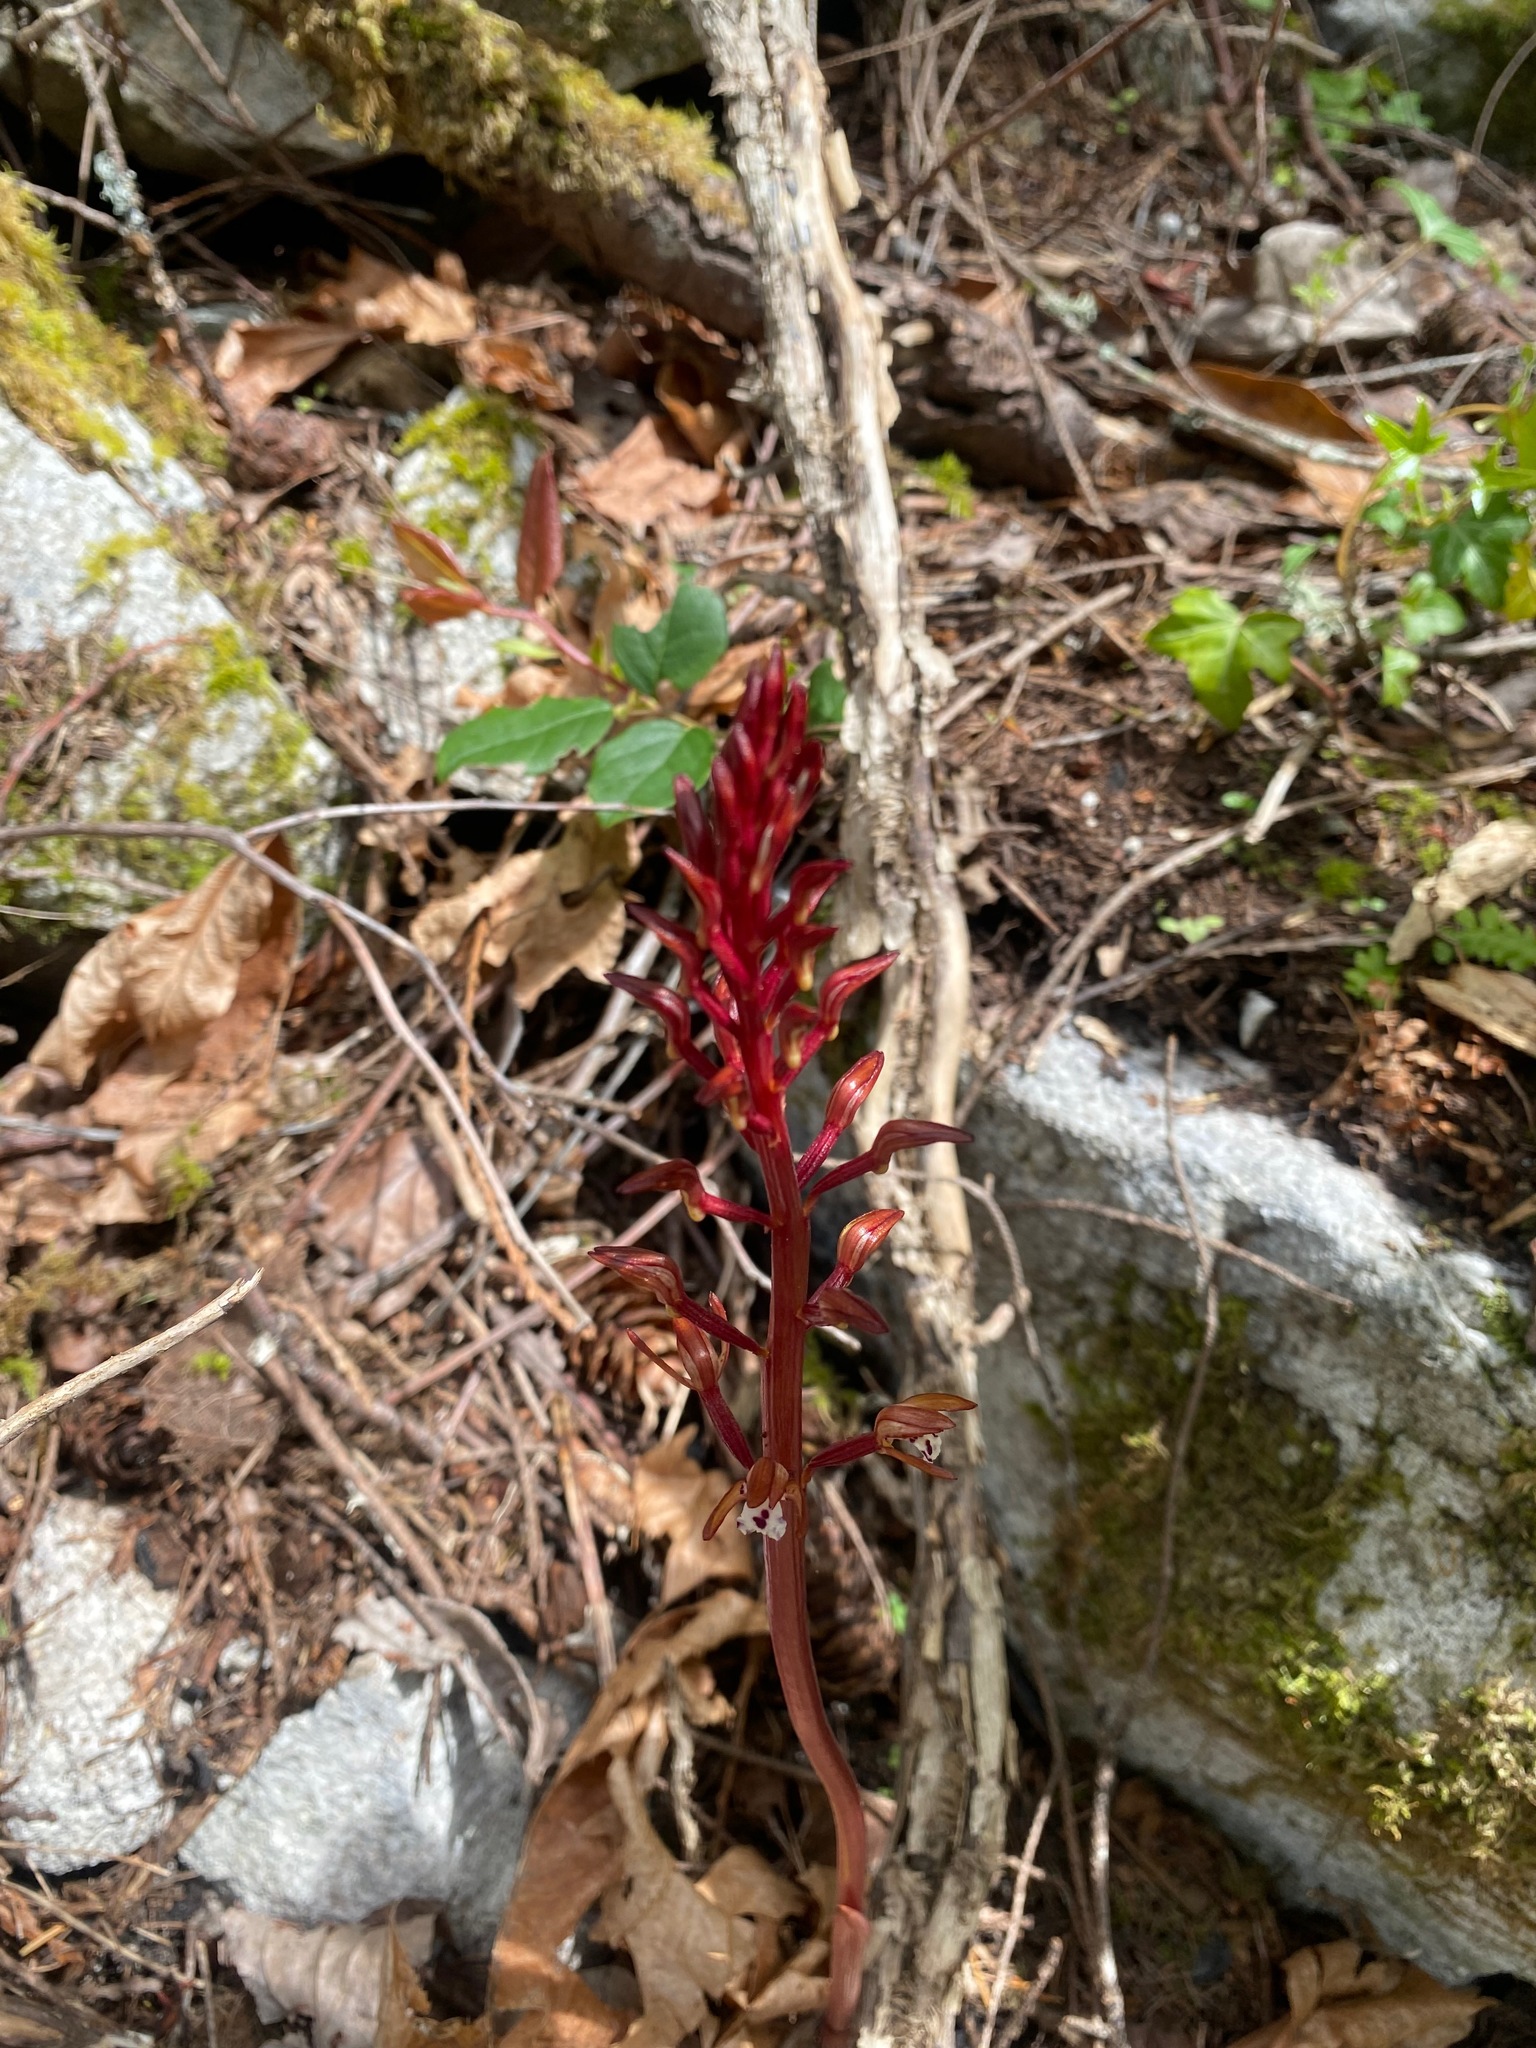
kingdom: Plantae
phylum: Tracheophyta
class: Liliopsida
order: Asparagales
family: Orchidaceae
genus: Corallorhiza
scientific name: Corallorhiza maculata
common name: Spotted coralroot
